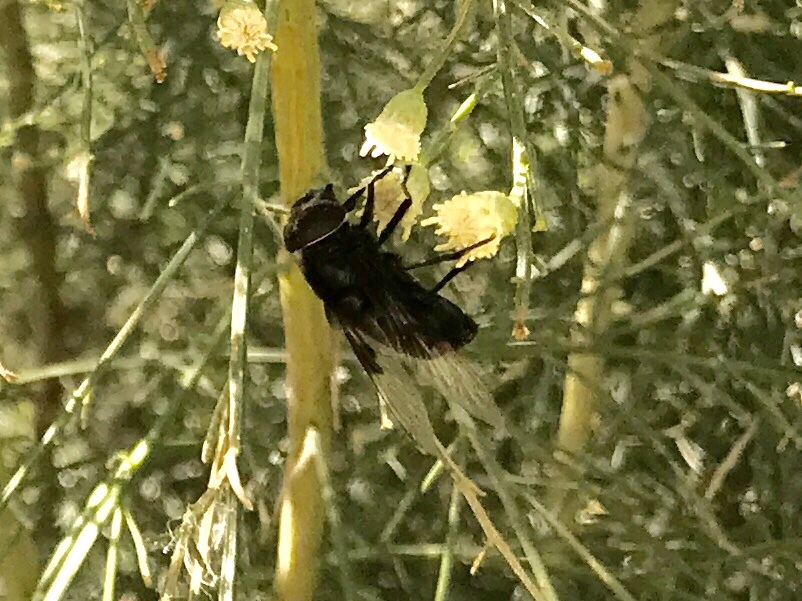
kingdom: Animalia
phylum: Arthropoda
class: Insecta
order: Diptera
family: Syrphidae
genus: Copestylum
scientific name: Copestylum mexicanum
